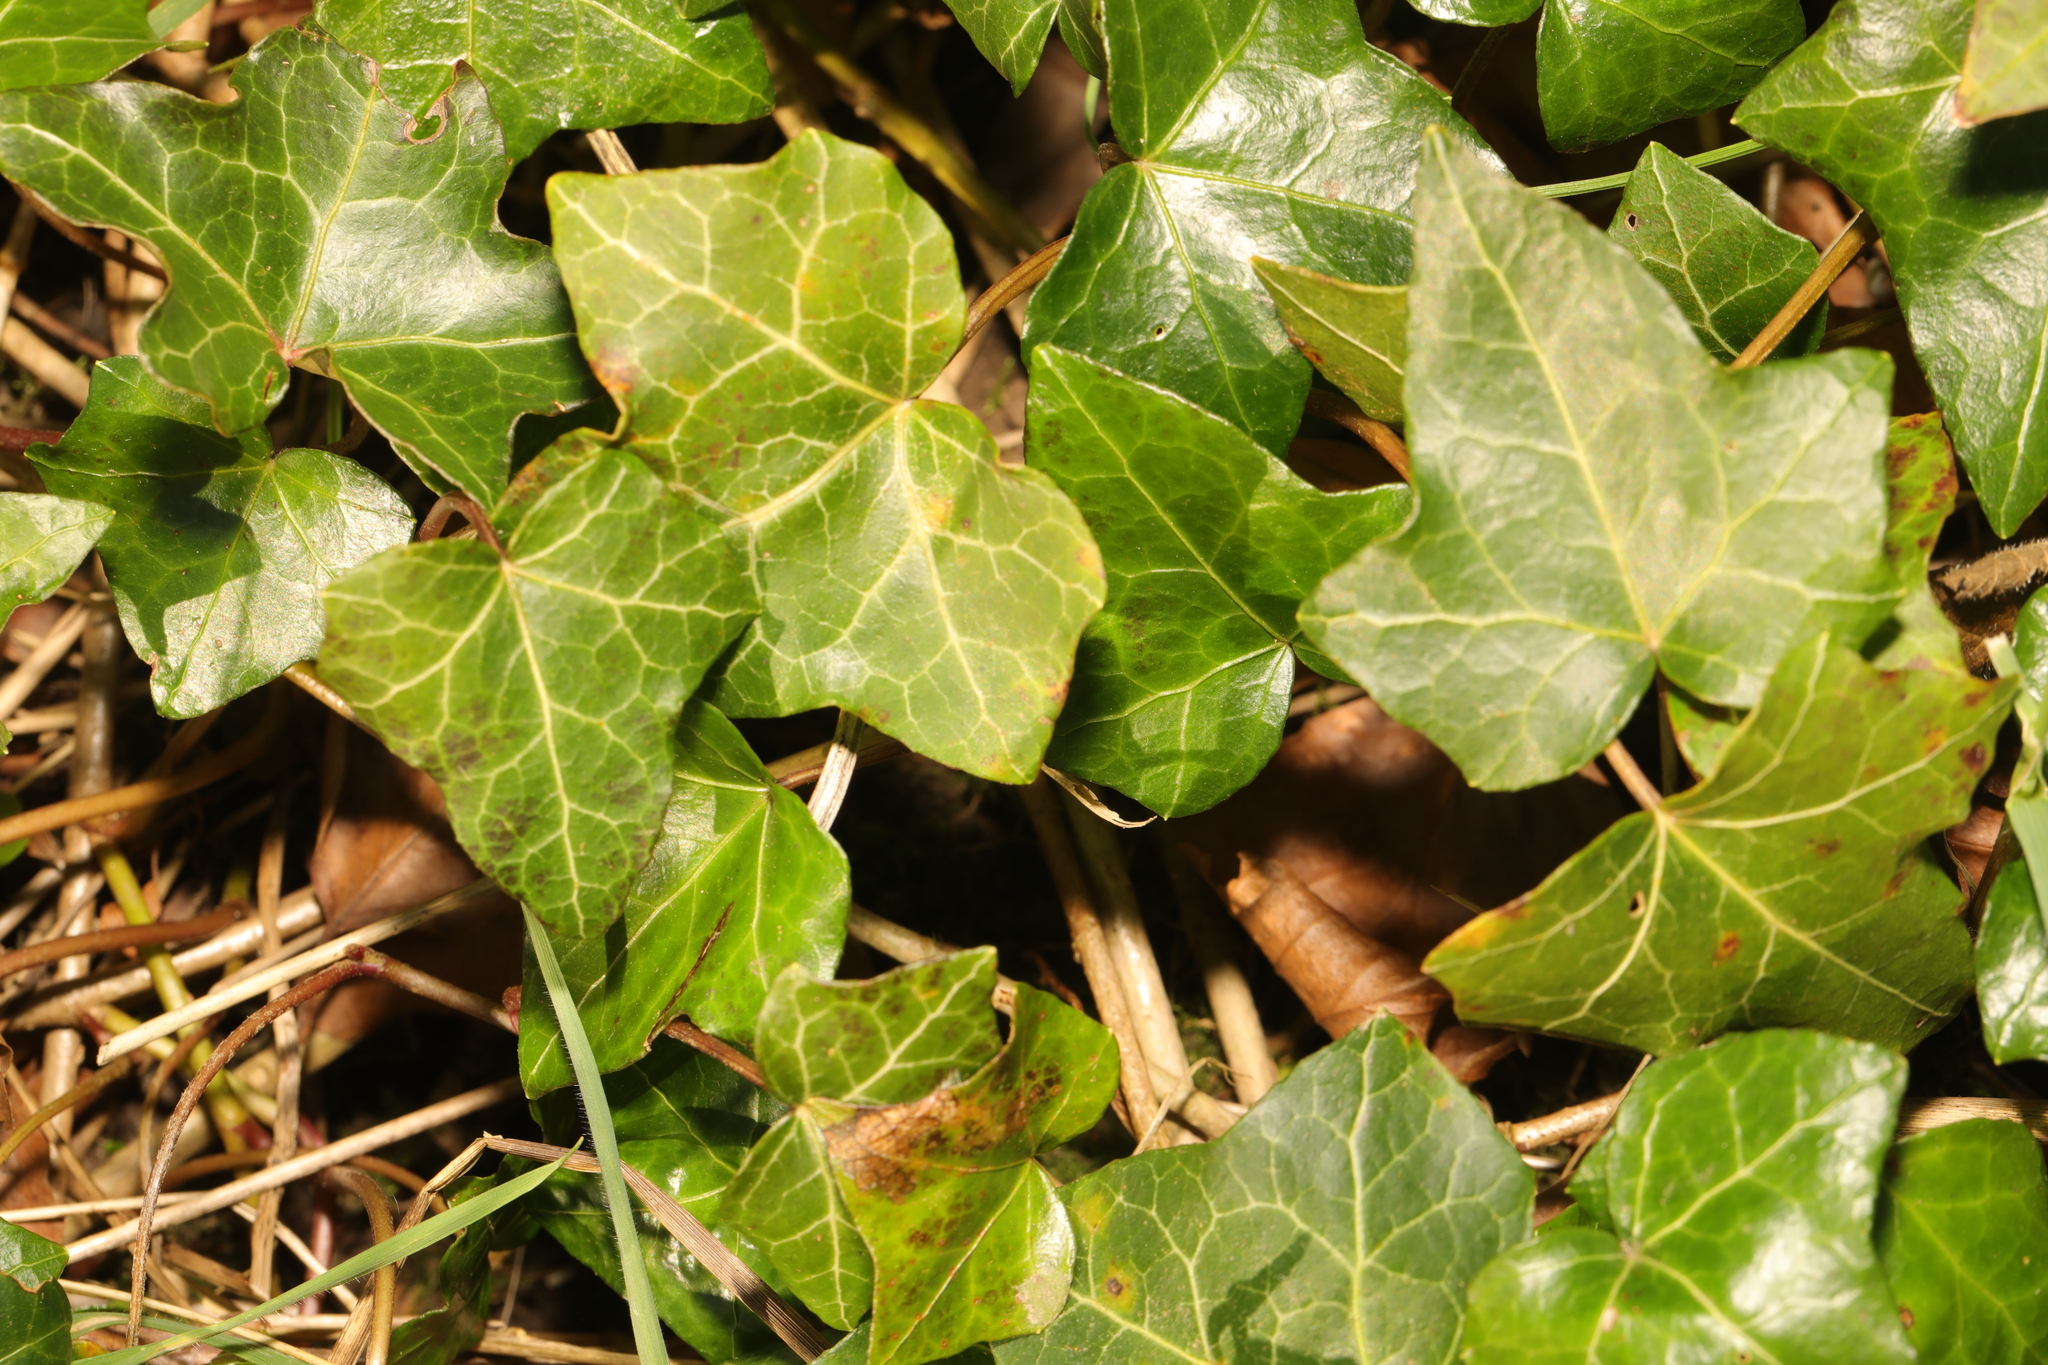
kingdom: Plantae
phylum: Tracheophyta
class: Magnoliopsida
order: Apiales
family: Araliaceae
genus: Hedera
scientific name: Hedera helix
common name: Ivy
